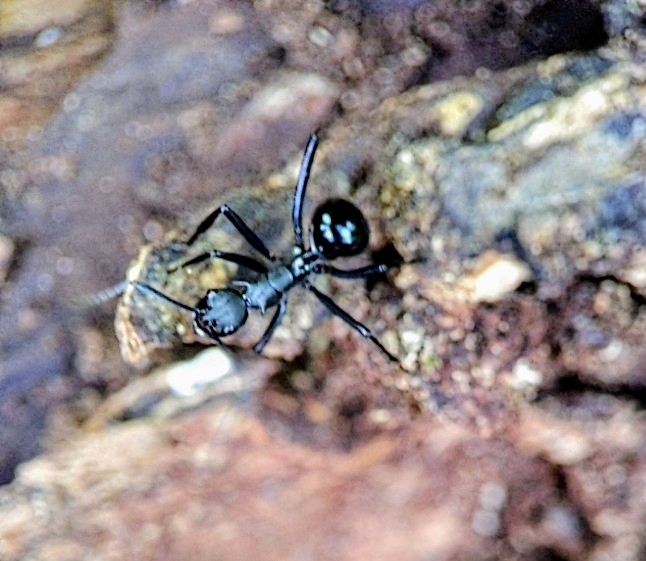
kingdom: Animalia
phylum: Arthropoda
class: Insecta
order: Hymenoptera
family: Formicidae
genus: Polyrhachis
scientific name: Polyrhachis chalybea
